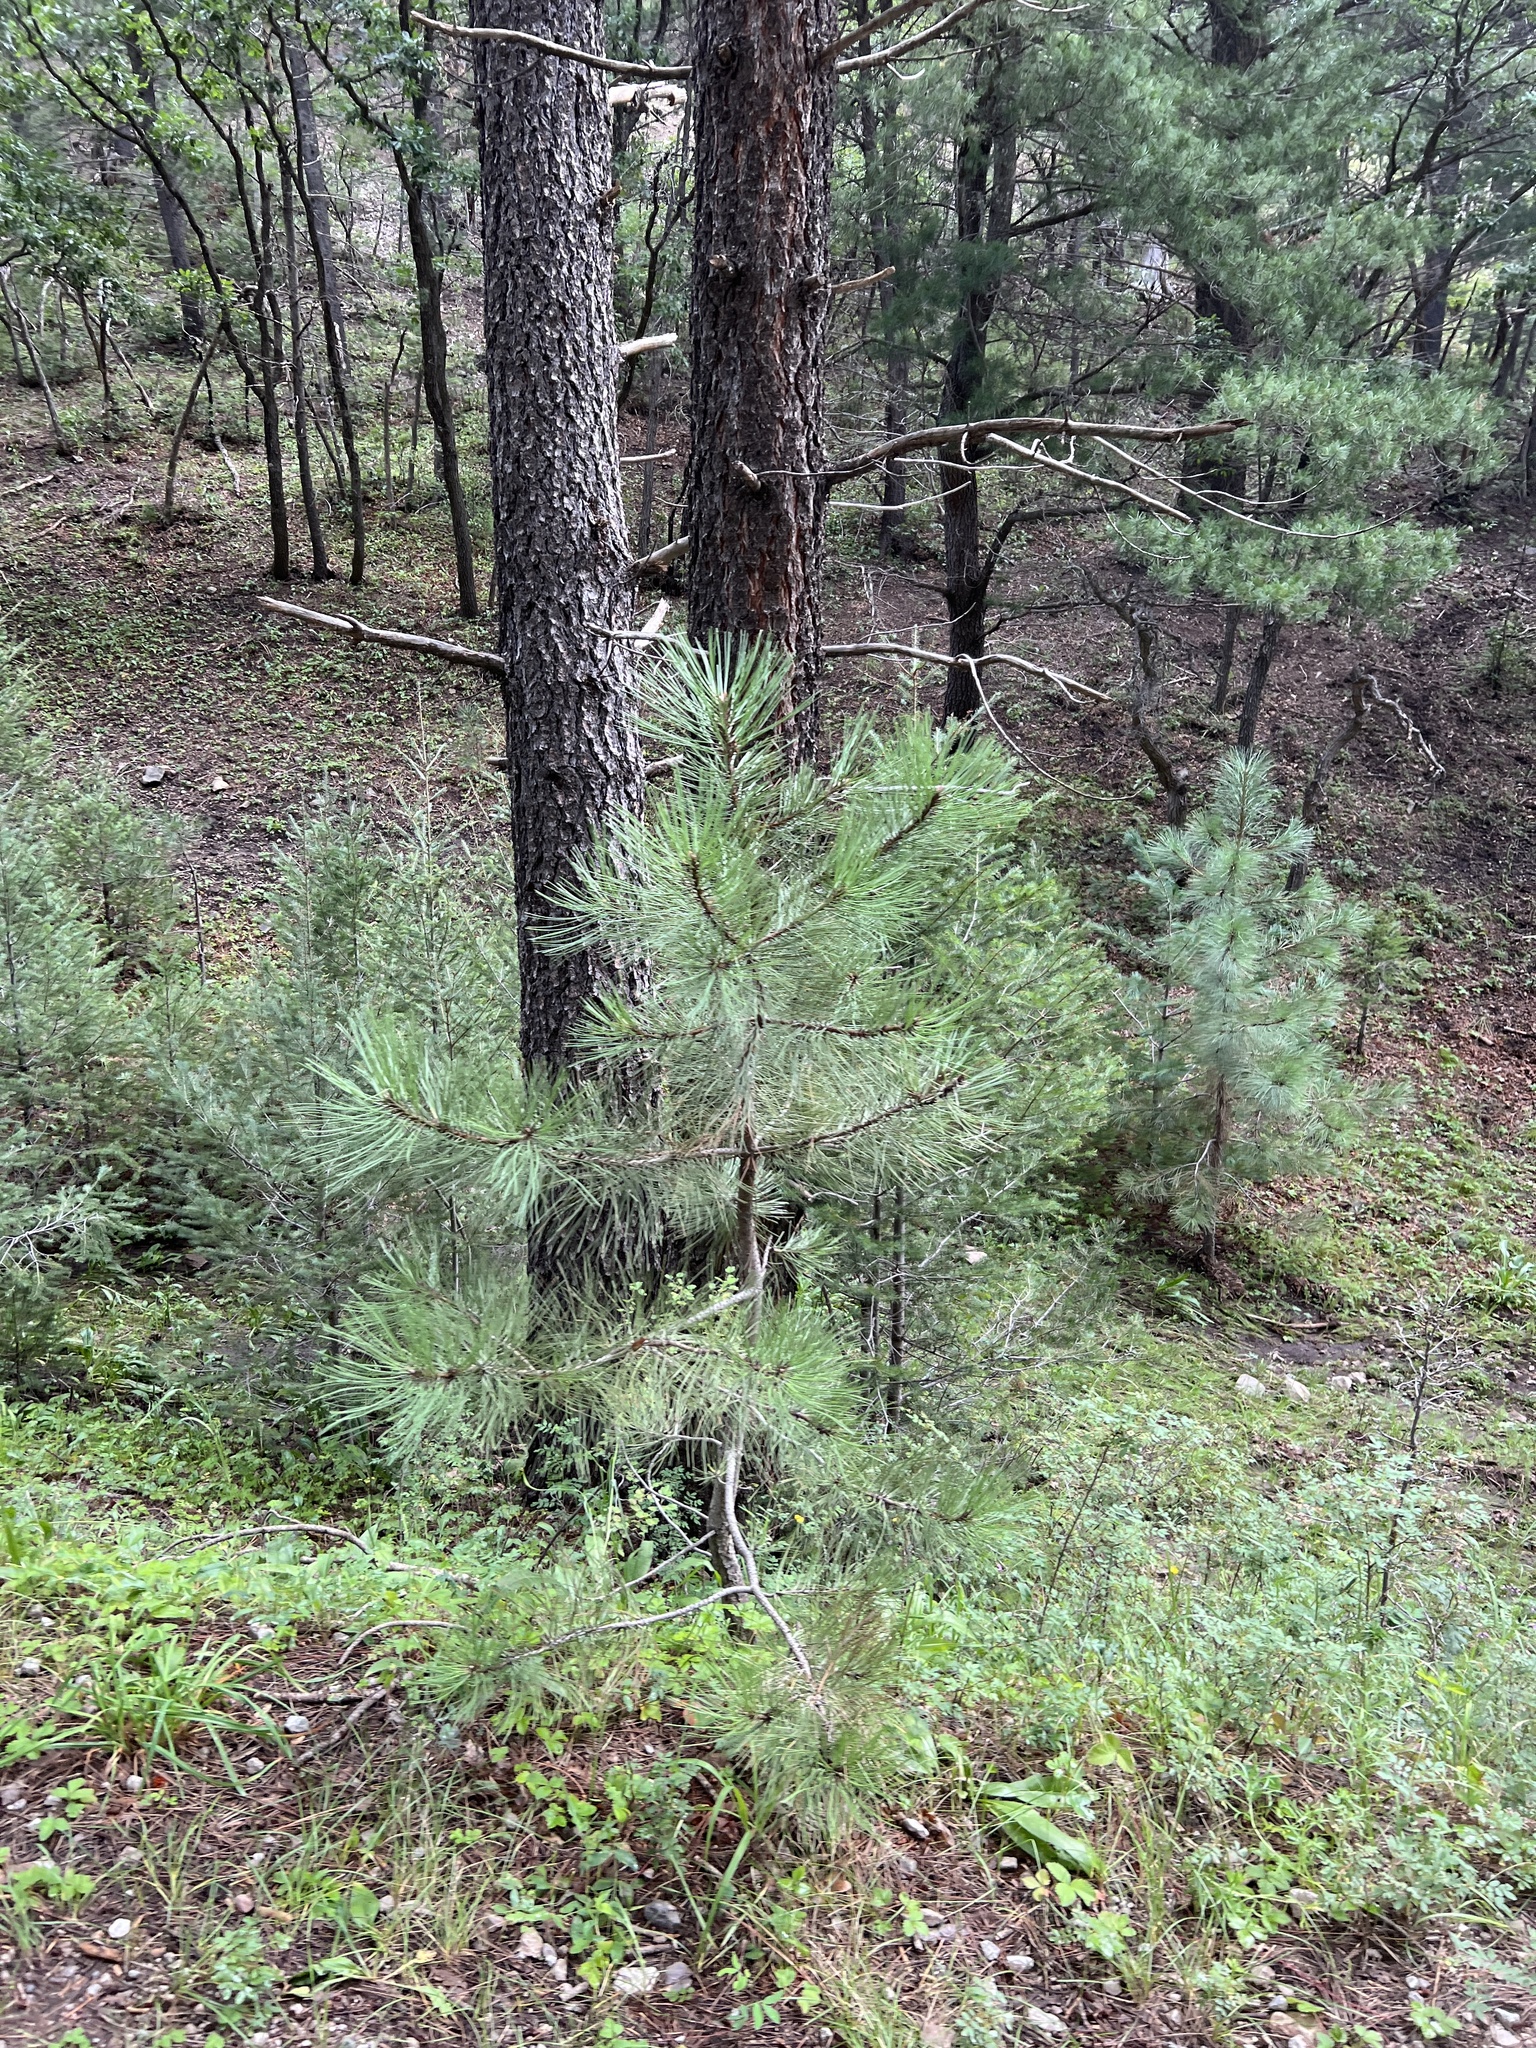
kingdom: Plantae
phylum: Tracheophyta
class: Pinopsida
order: Pinales
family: Pinaceae
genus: Pinus
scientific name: Pinus ponderosa
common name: Western yellow-pine
